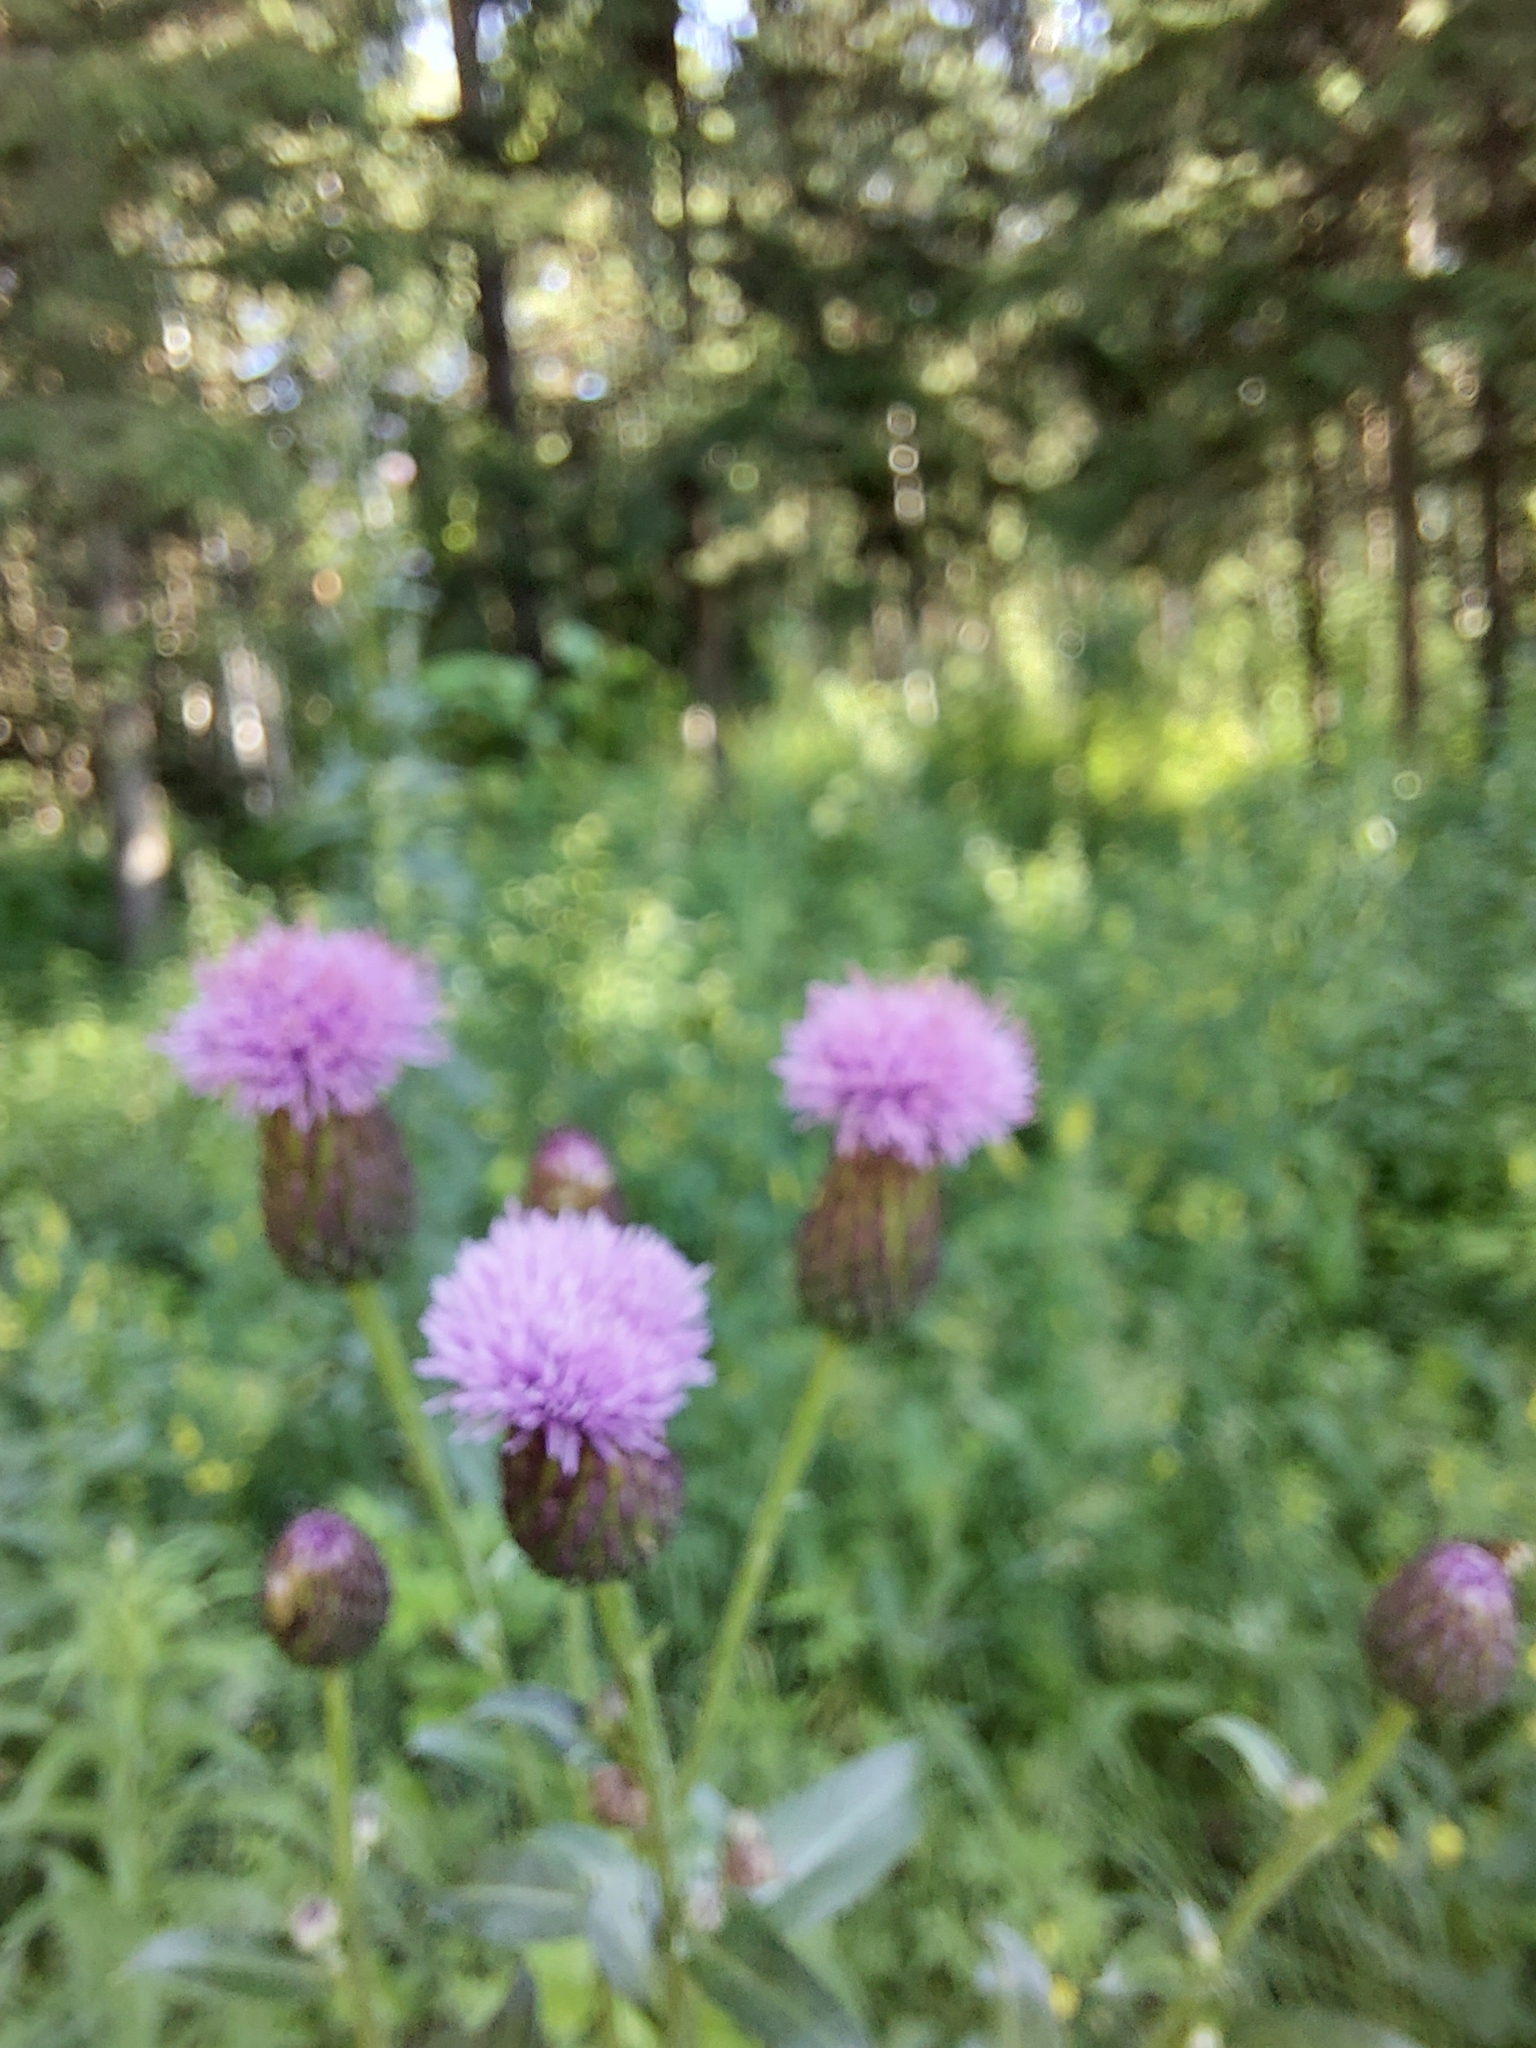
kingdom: Plantae
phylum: Tracheophyta
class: Magnoliopsida
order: Asterales
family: Asteraceae
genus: Cirsium
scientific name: Cirsium arvense
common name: Creeping thistle
